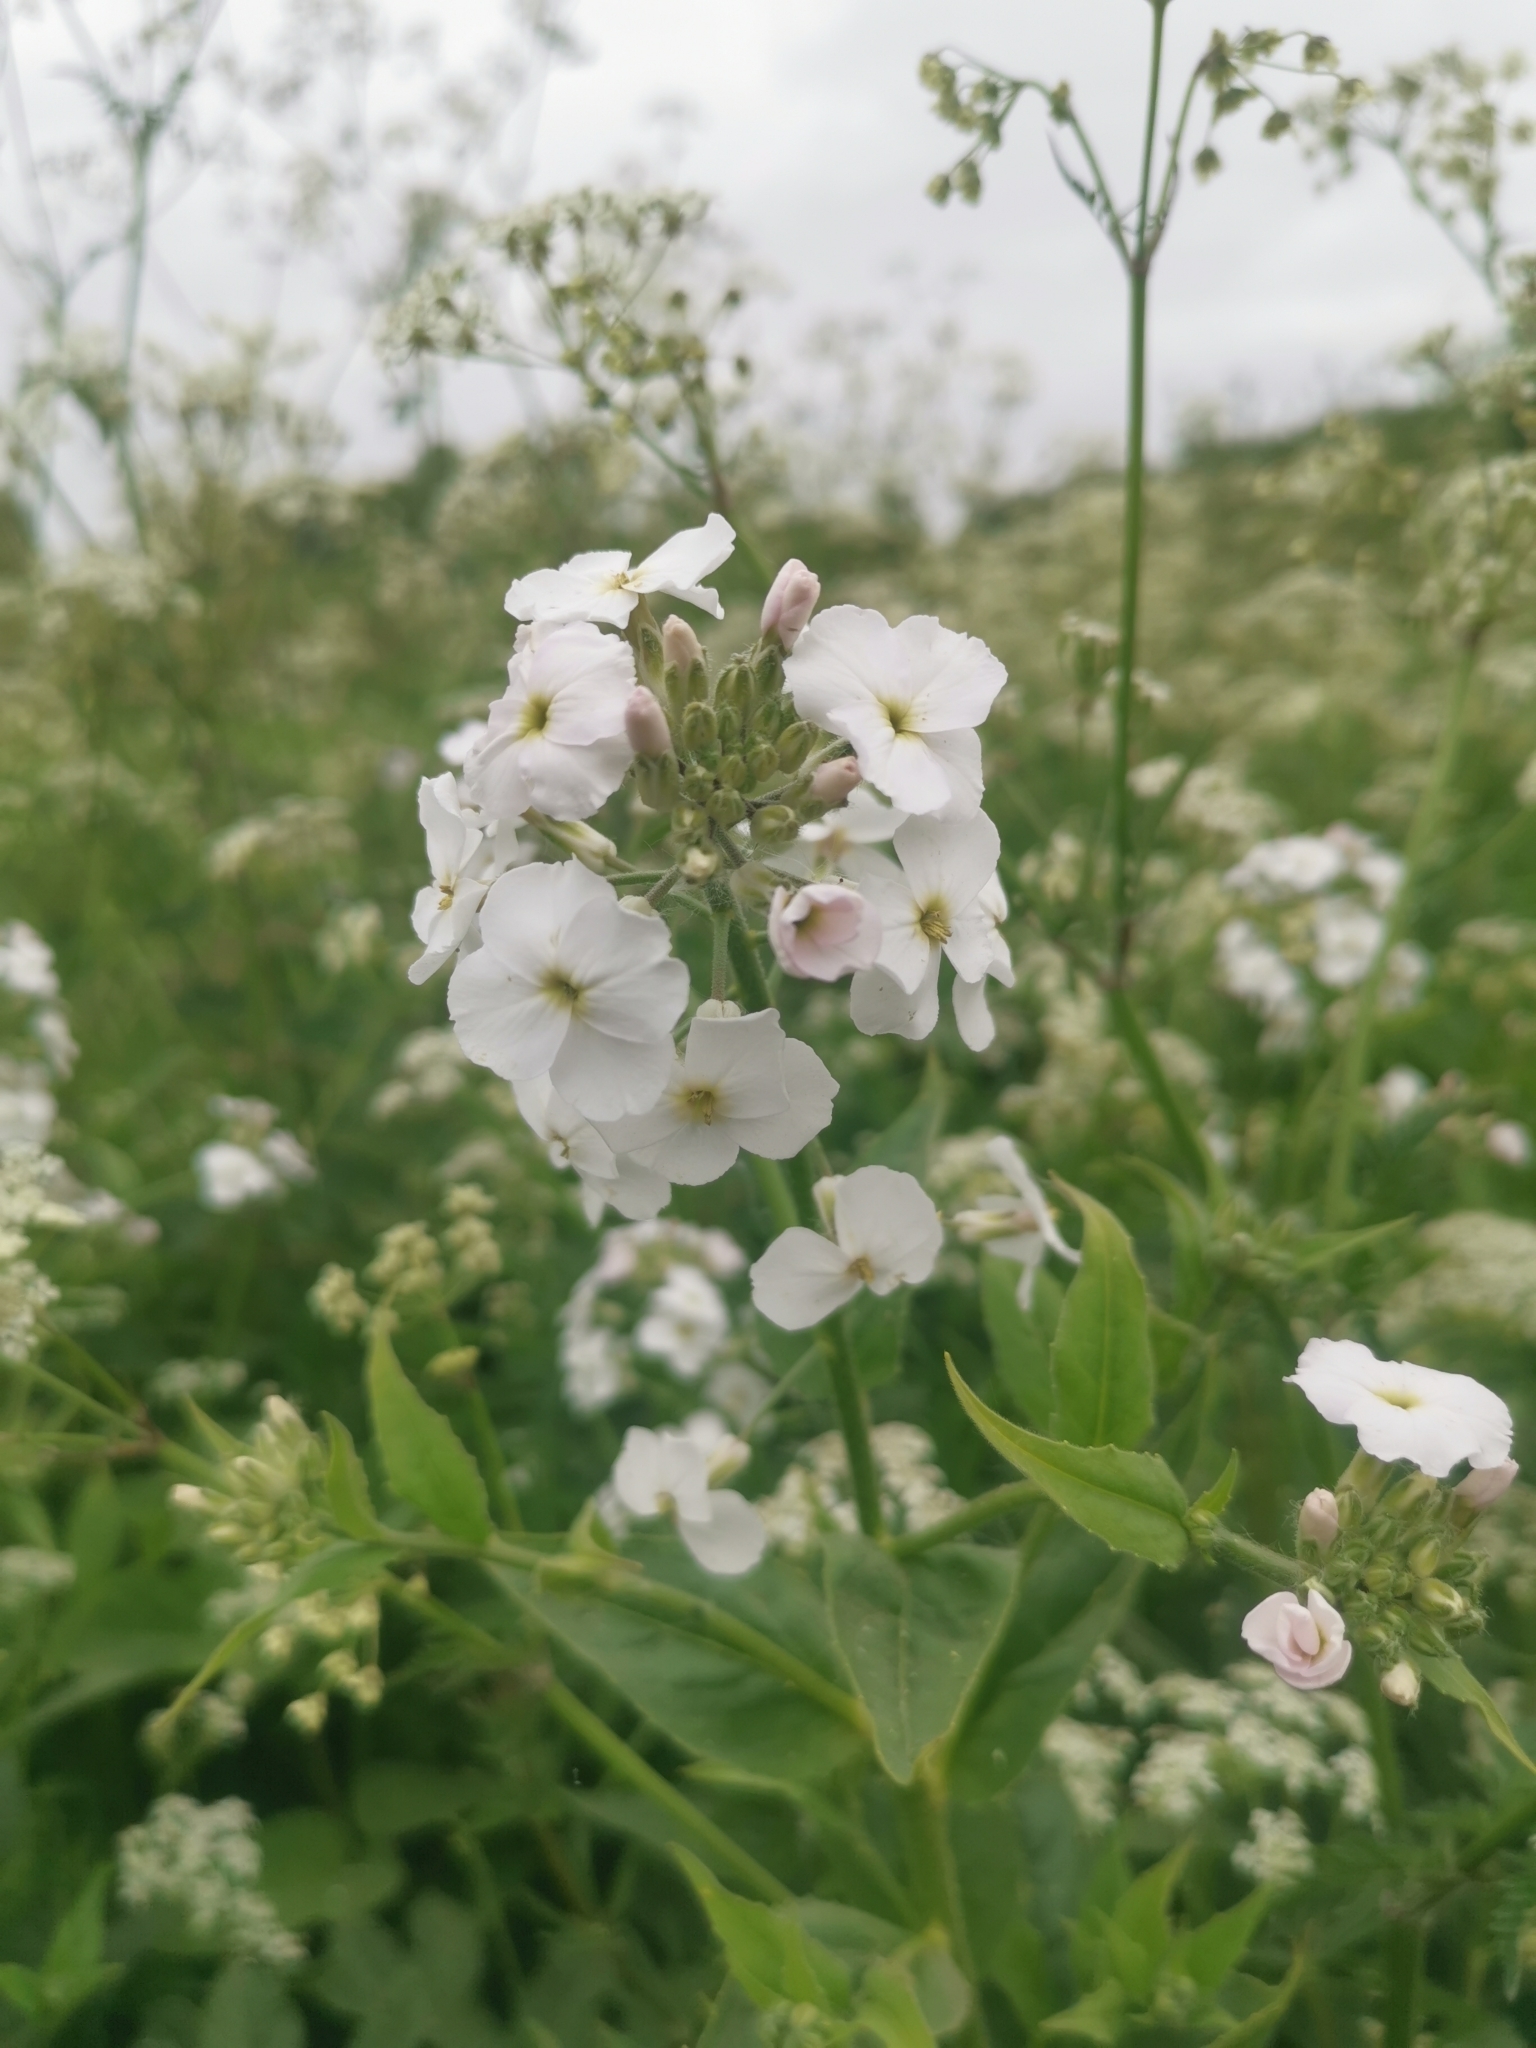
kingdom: Plantae
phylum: Tracheophyta
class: Magnoliopsida
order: Brassicales
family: Brassicaceae
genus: Hesperis
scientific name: Hesperis matronalis
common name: Dame's-violet
